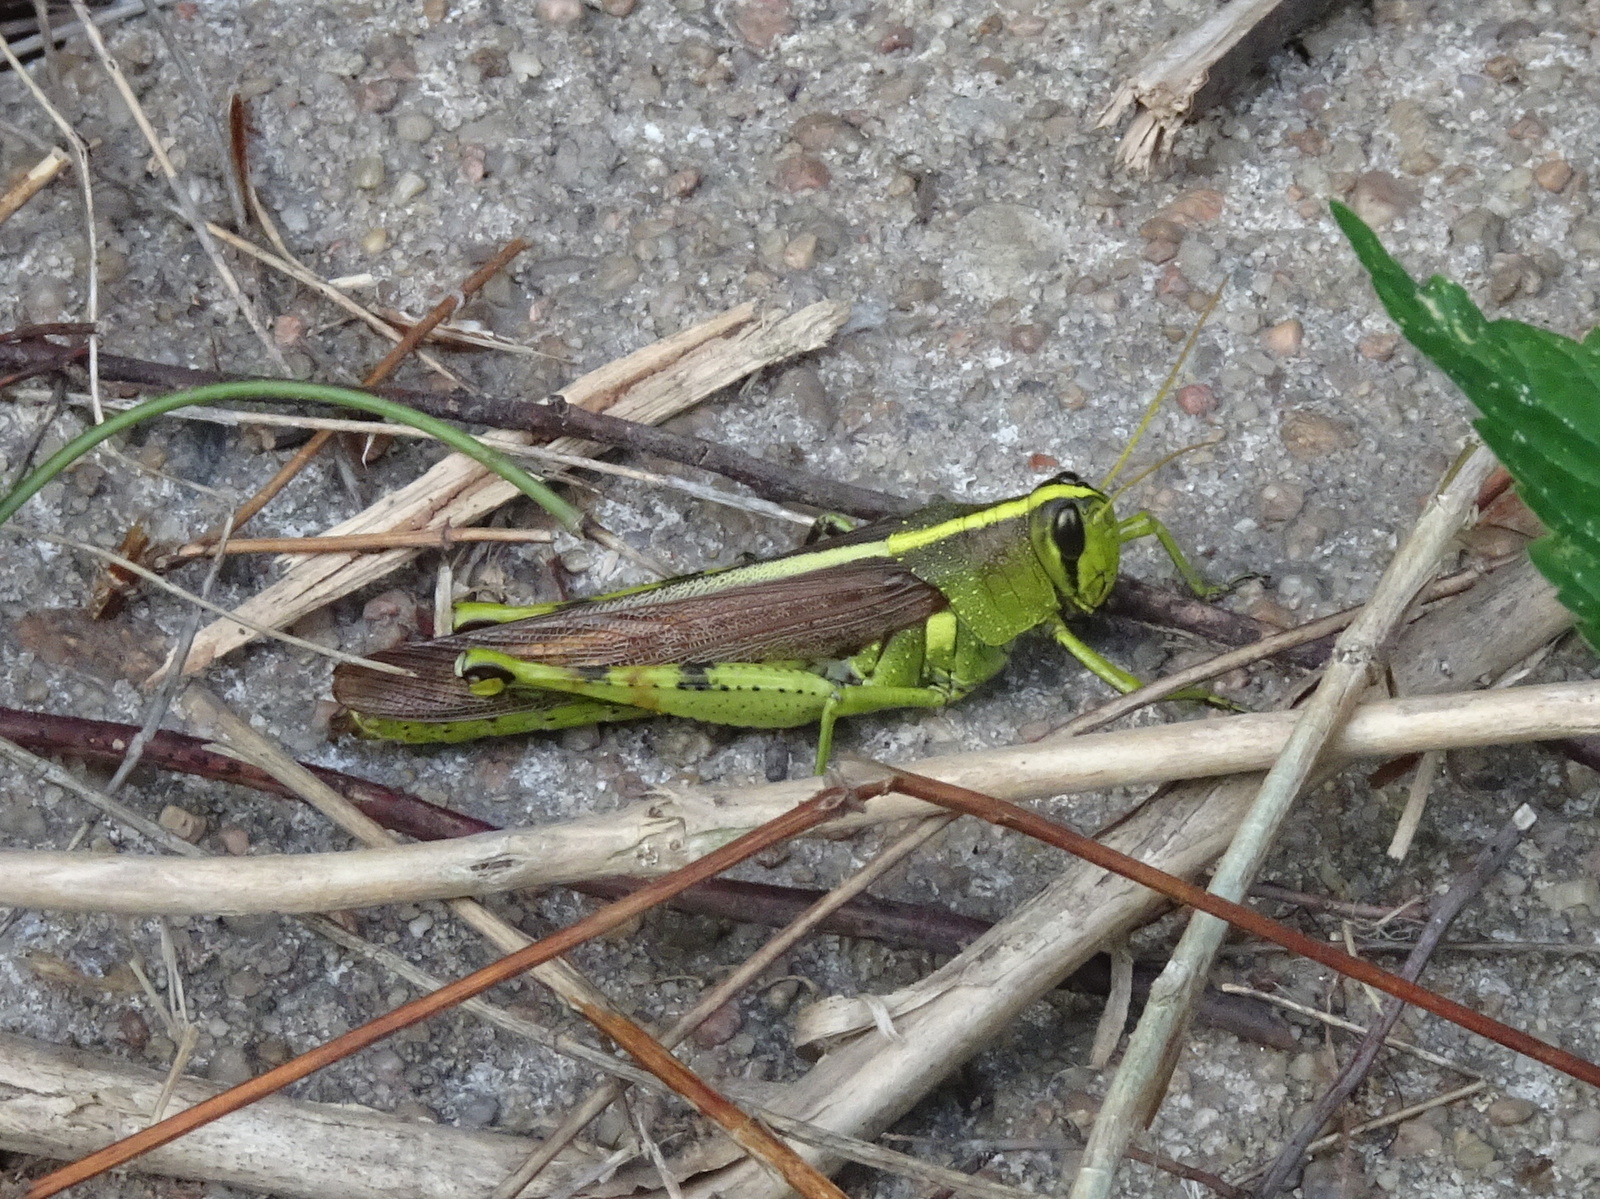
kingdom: Animalia
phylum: Arthropoda
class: Insecta
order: Orthoptera
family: Acrididae
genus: Schistocerca
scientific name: Schistocerca obscura
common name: Obscure bird grasshopper
